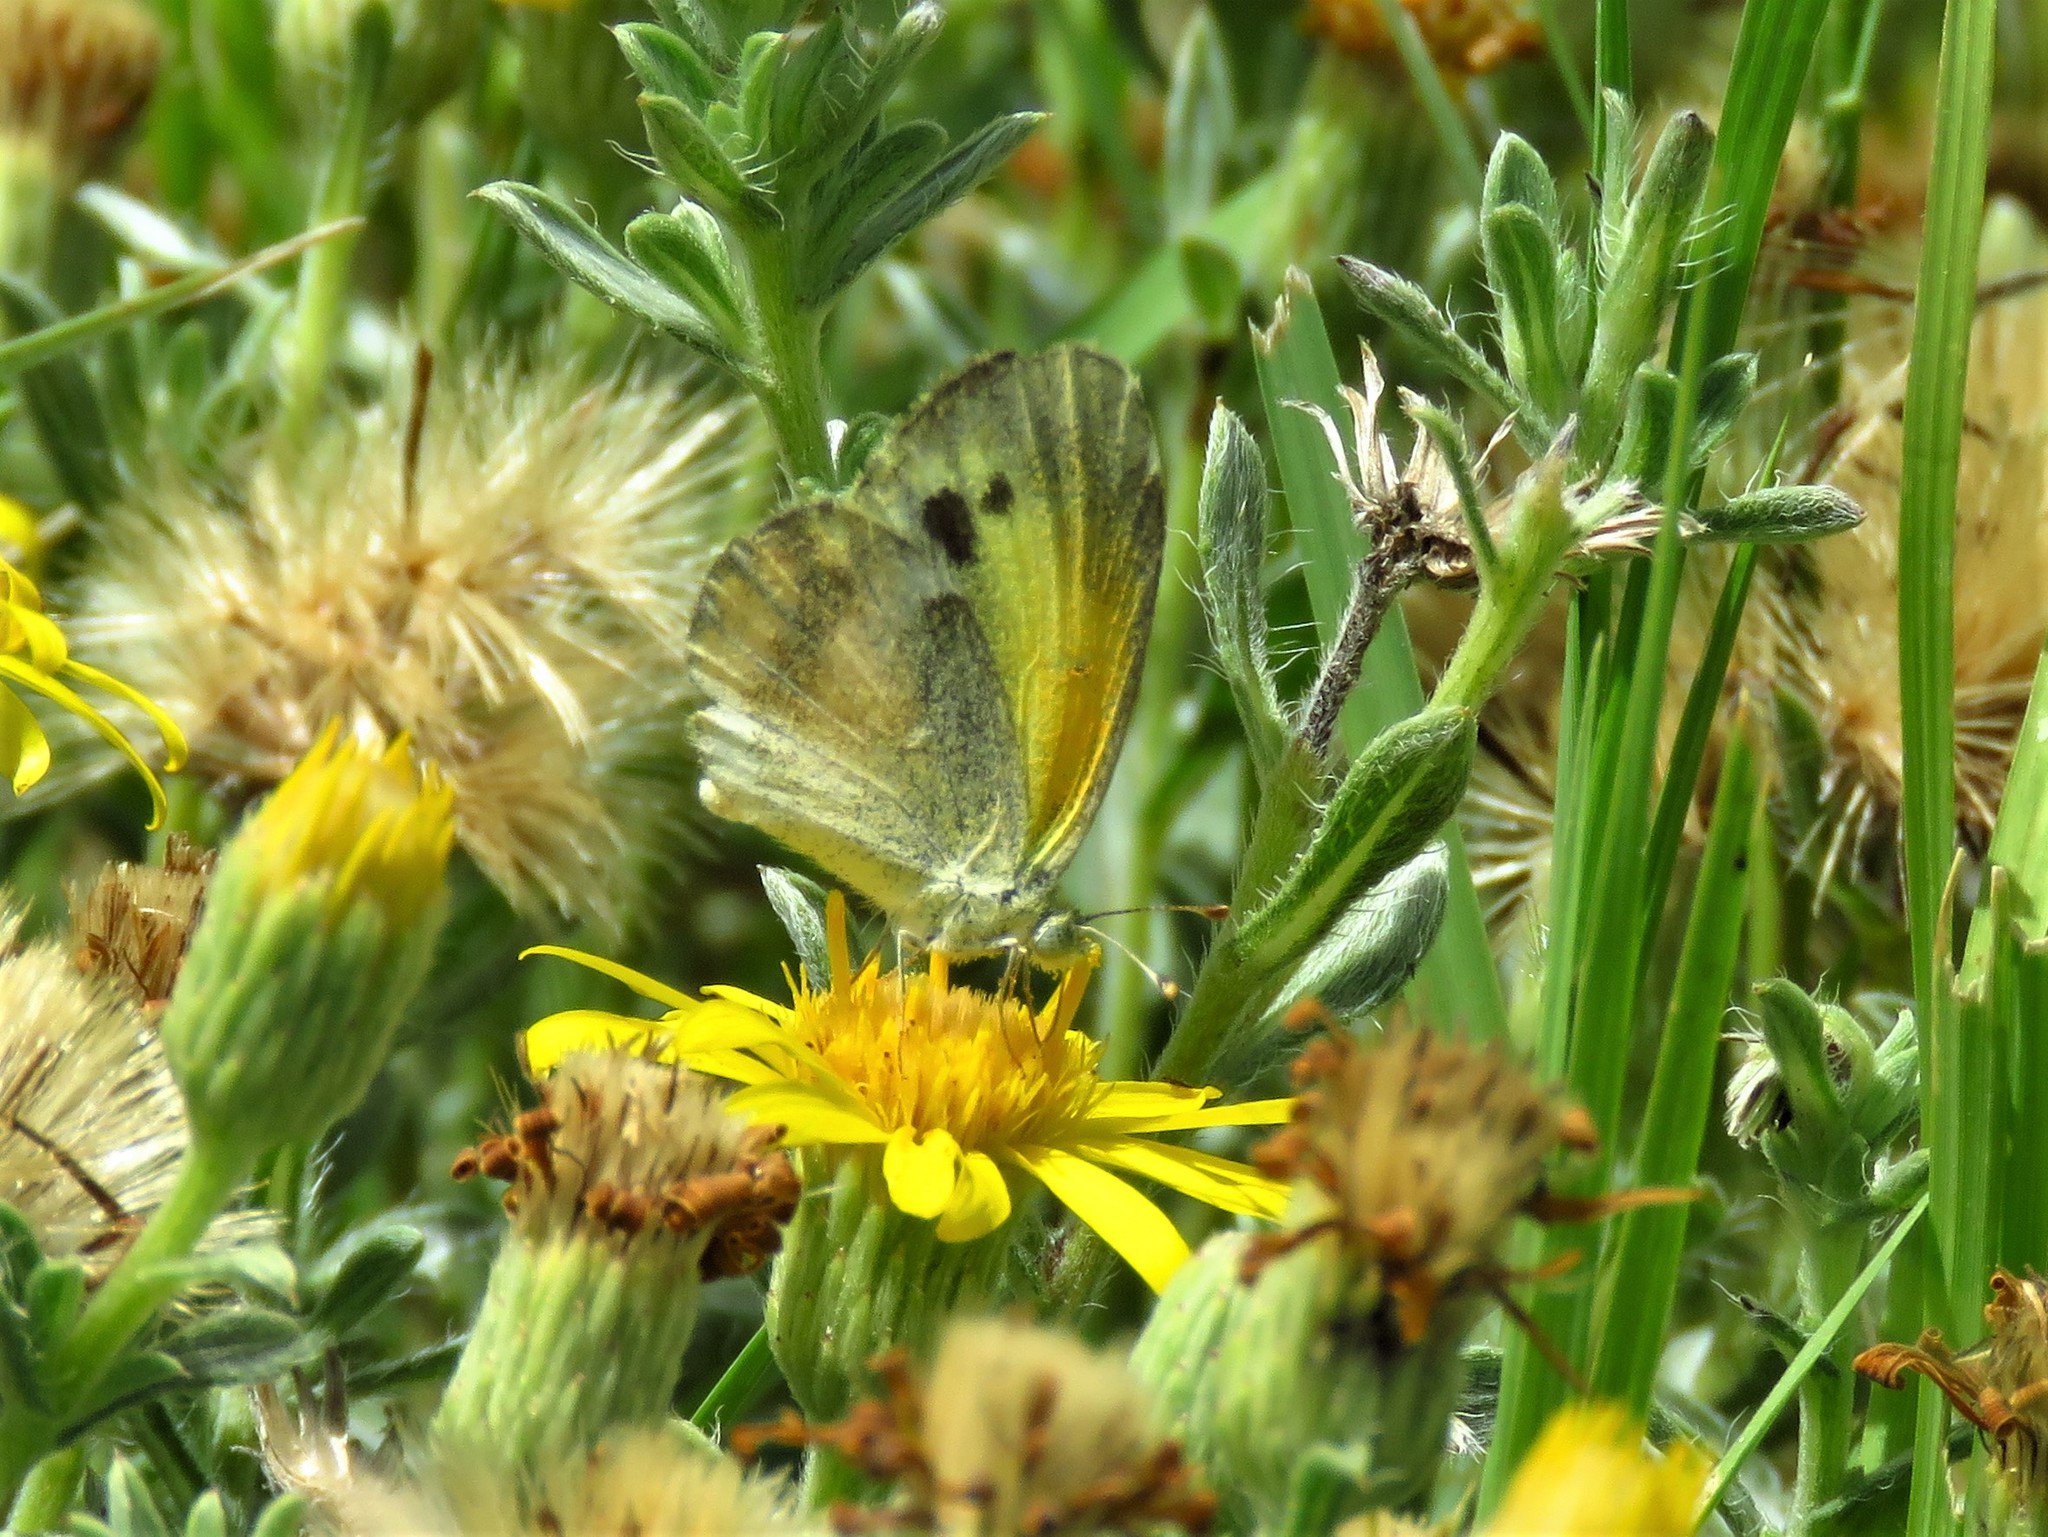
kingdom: Animalia
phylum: Arthropoda
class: Insecta
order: Lepidoptera
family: Pieridae
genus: Nathalis
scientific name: Nathalis iole
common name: Dainty sulphur
